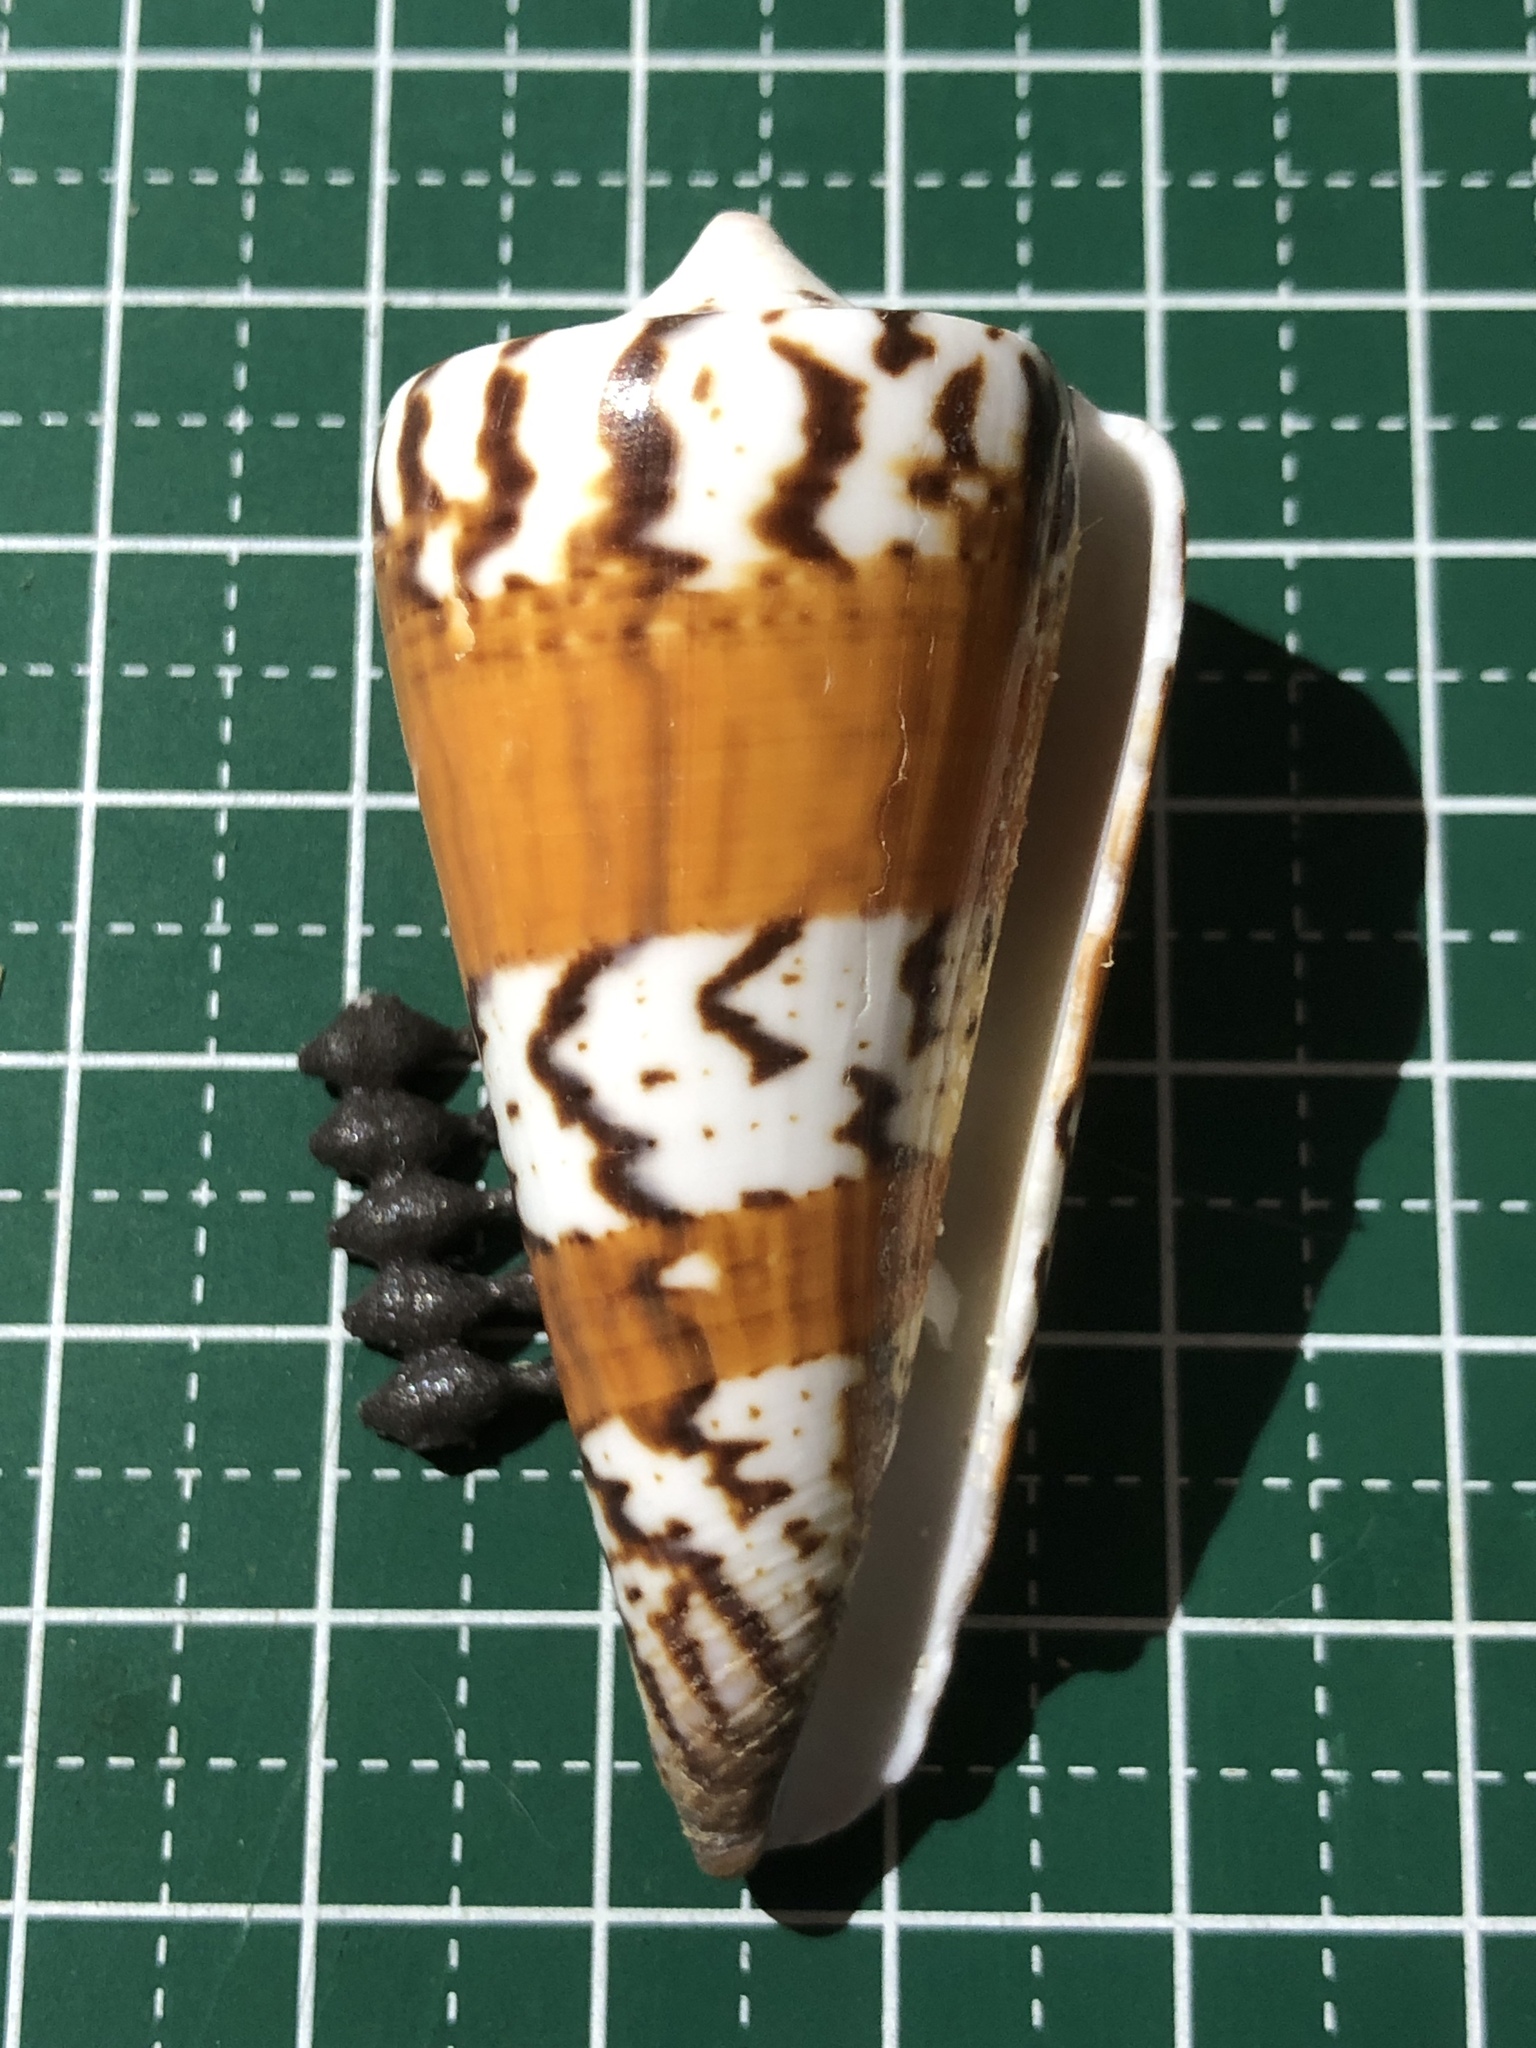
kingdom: Animalia
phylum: Mollusca
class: Gastropoda
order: Neogastropoda
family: Conidae
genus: Conus
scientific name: Conus generalis
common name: General cone
